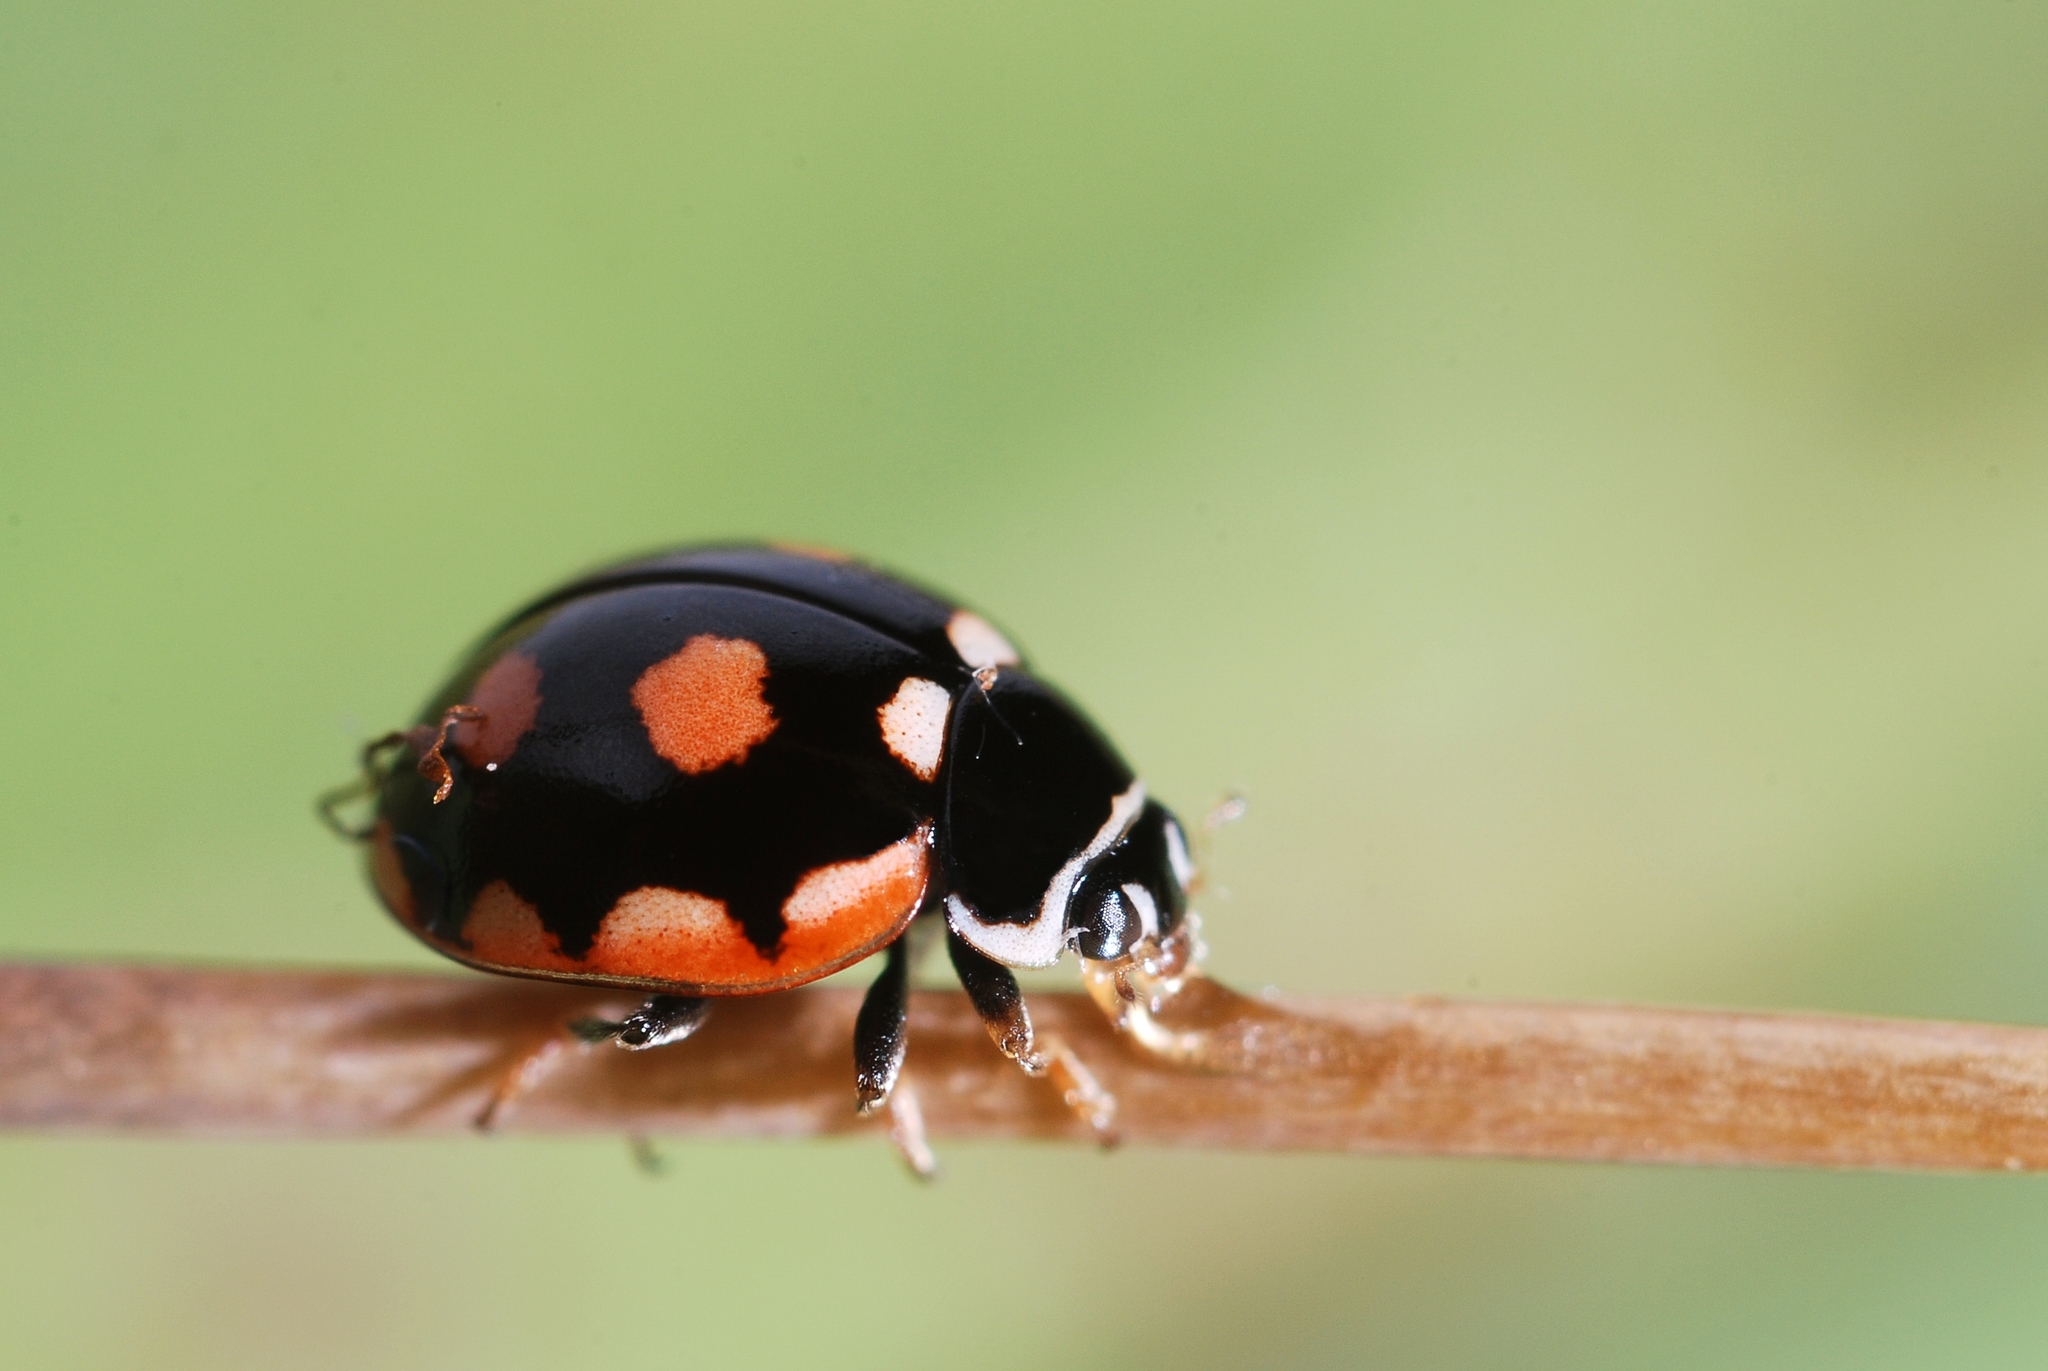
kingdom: Animalia
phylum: Arthropoda
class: Insecta
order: Coleoptera
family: Coccinellidae
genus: Coccinula
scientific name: Coccinula sinuatomarginata
